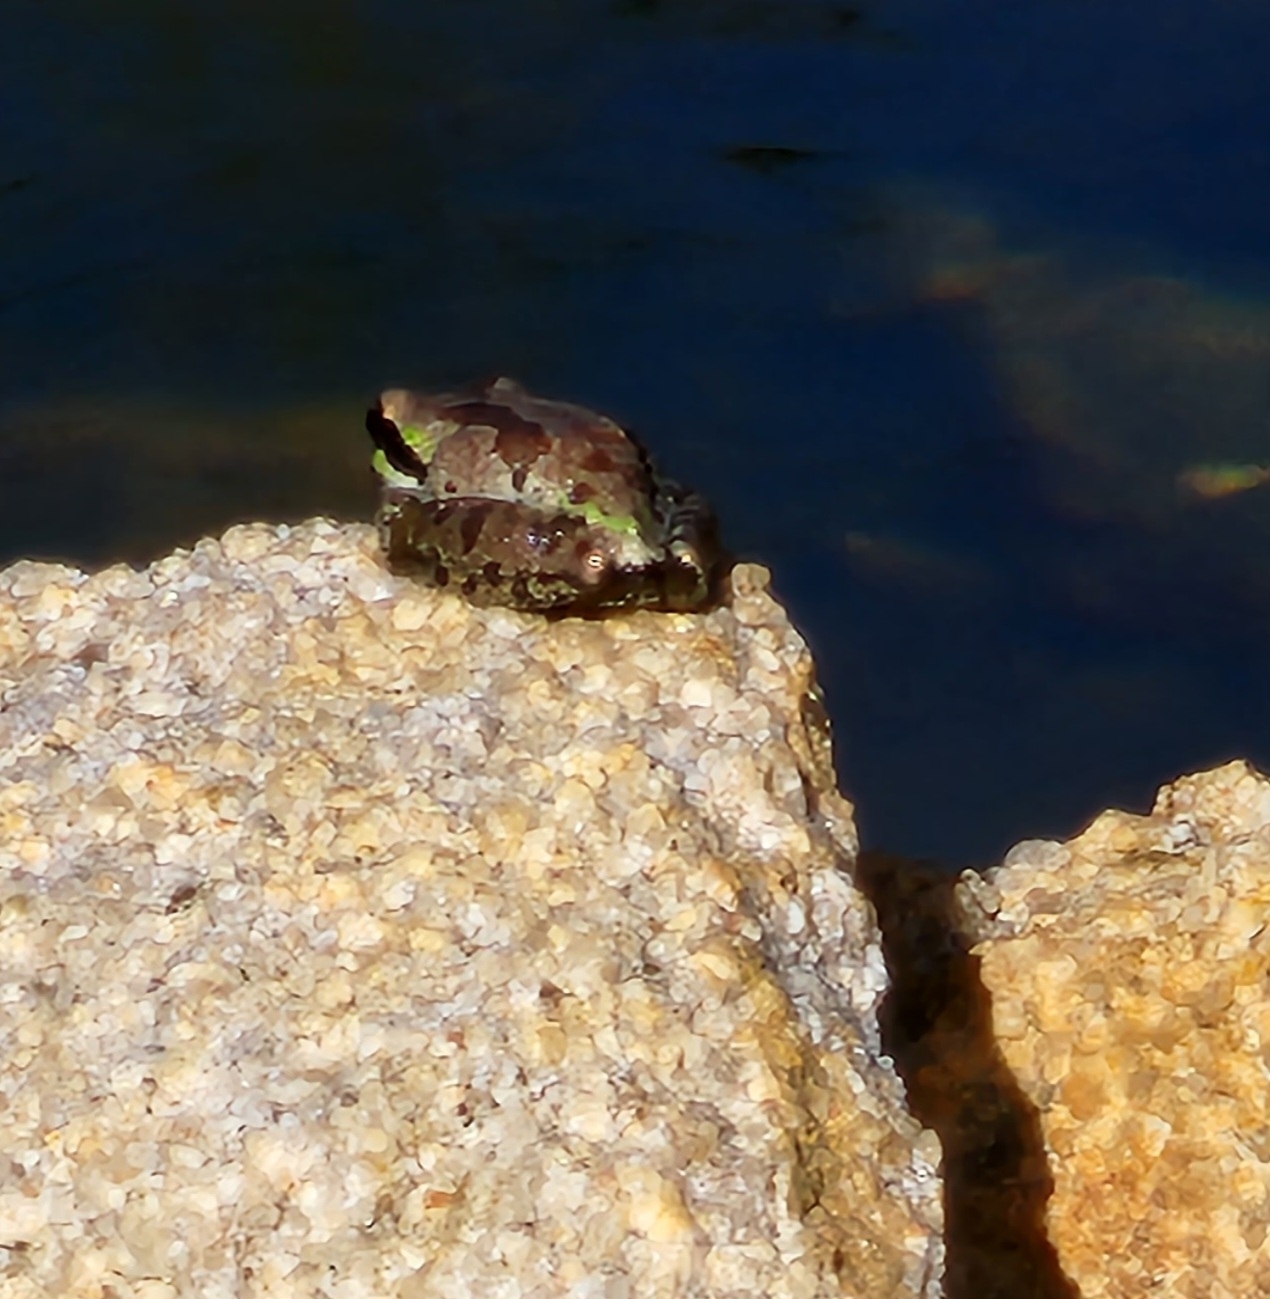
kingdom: Animalia
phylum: Chordata
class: Amphibia
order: Anura
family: Hylidae
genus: Pseudacris
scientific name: Pseudacris regilla
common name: Pacific chorus frog
